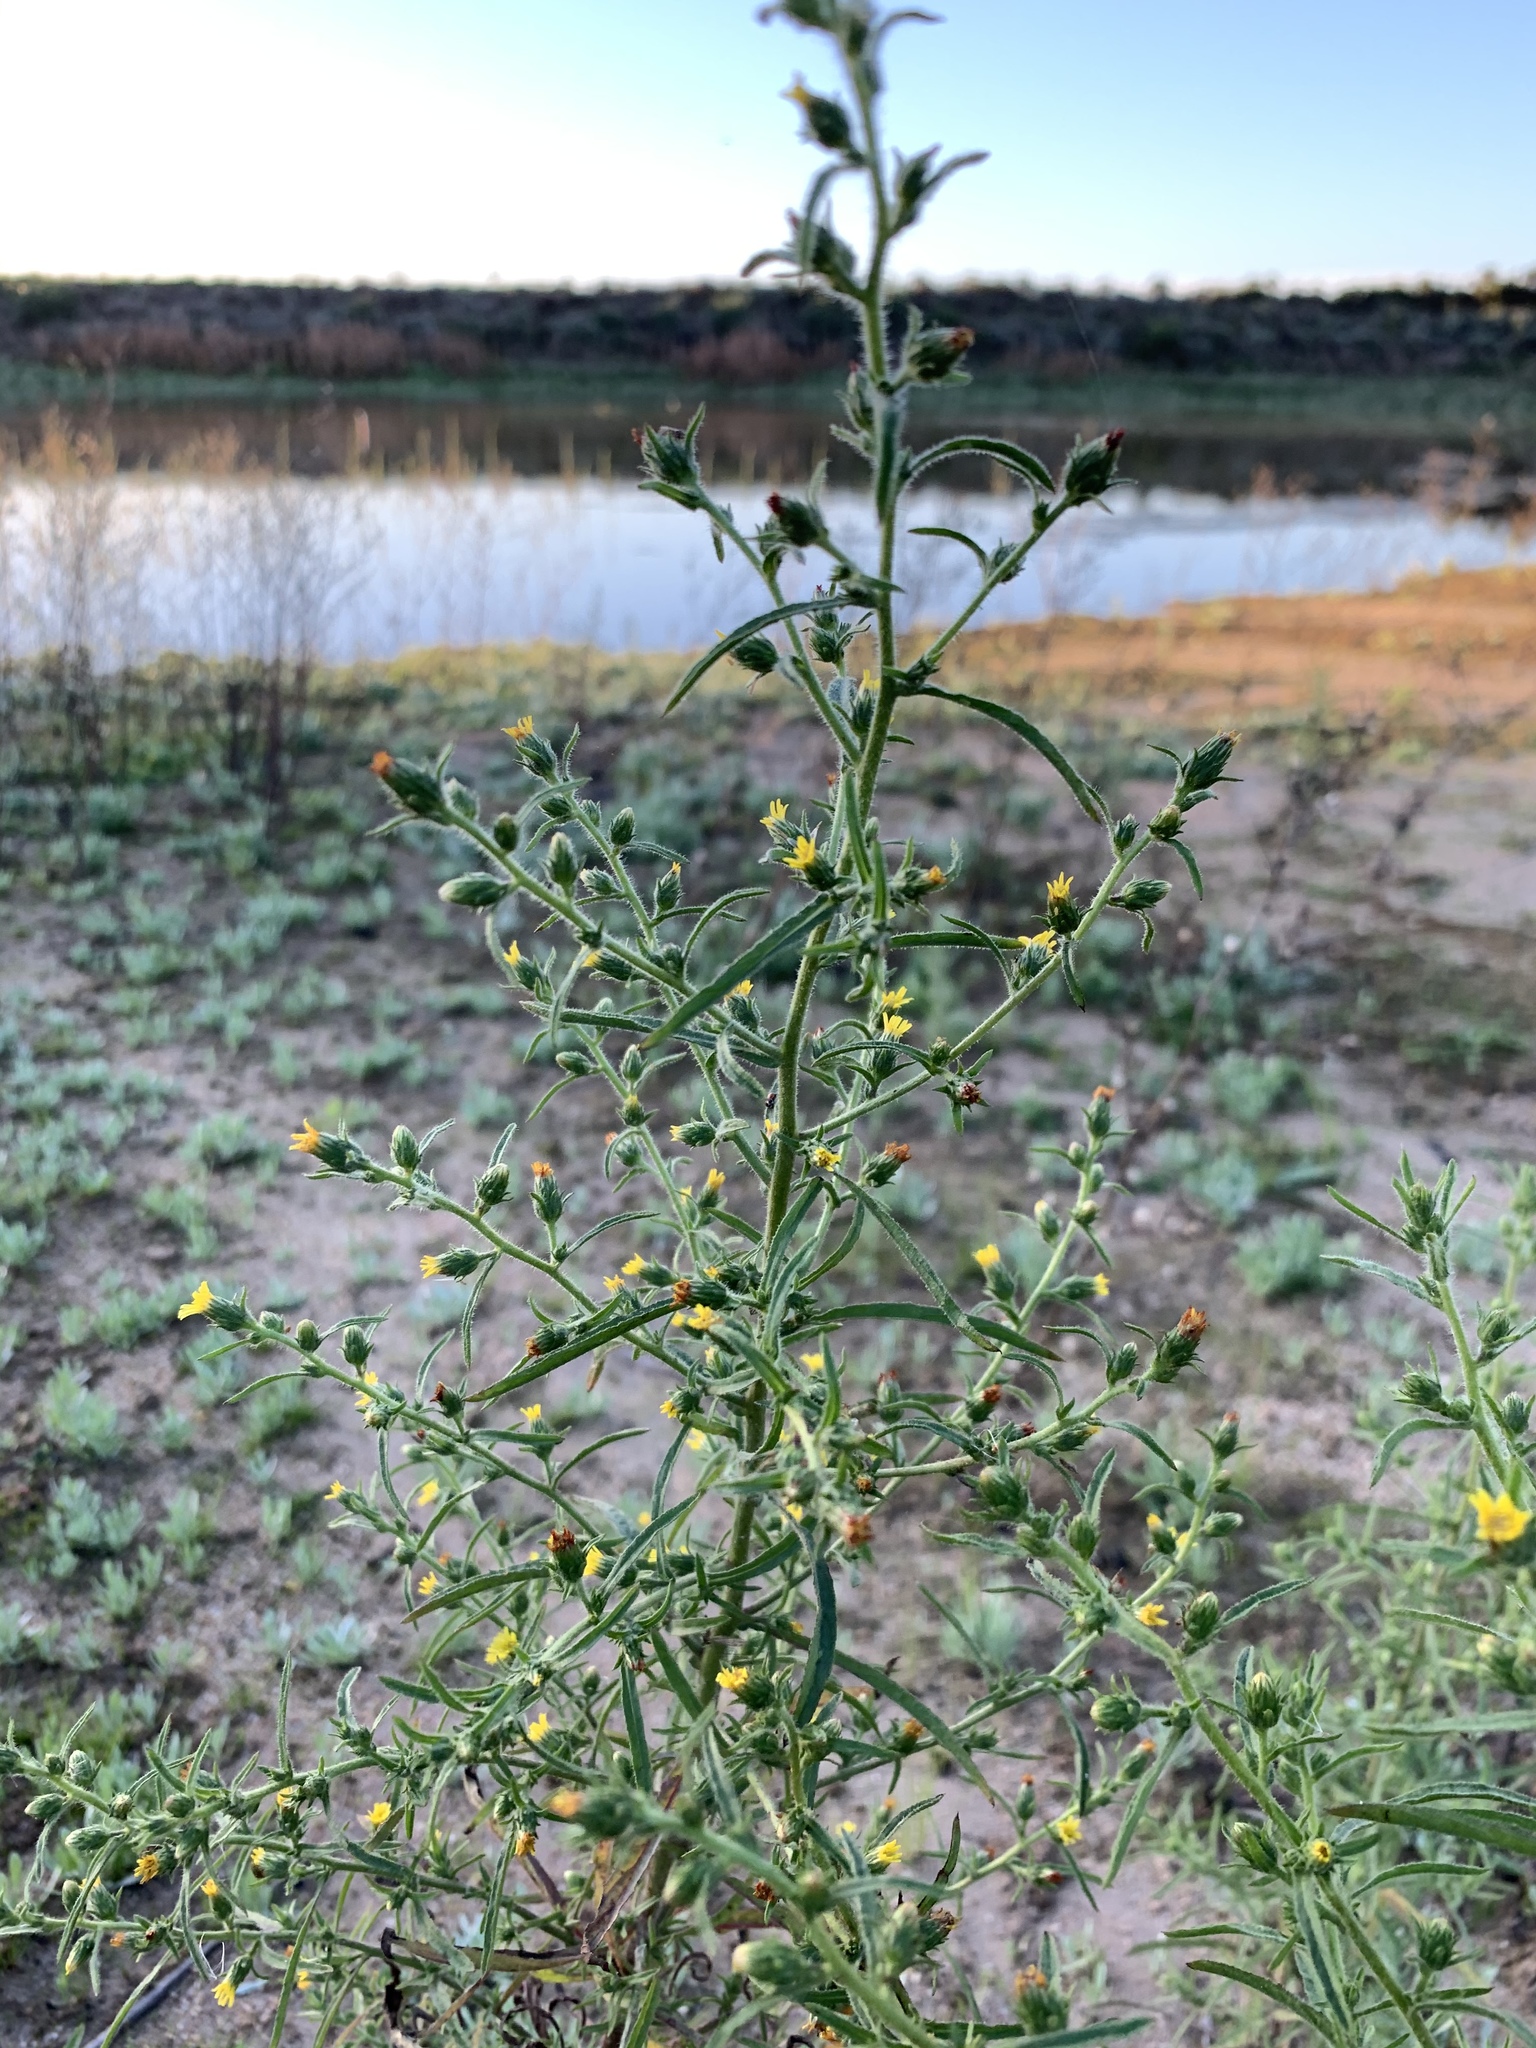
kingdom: Plantae
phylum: Tracheophyta
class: Magnoliopsida
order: Asterales
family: Asteraceae
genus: Dittrichia
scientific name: Dittrichia graveolens
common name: Stinking fleabane
